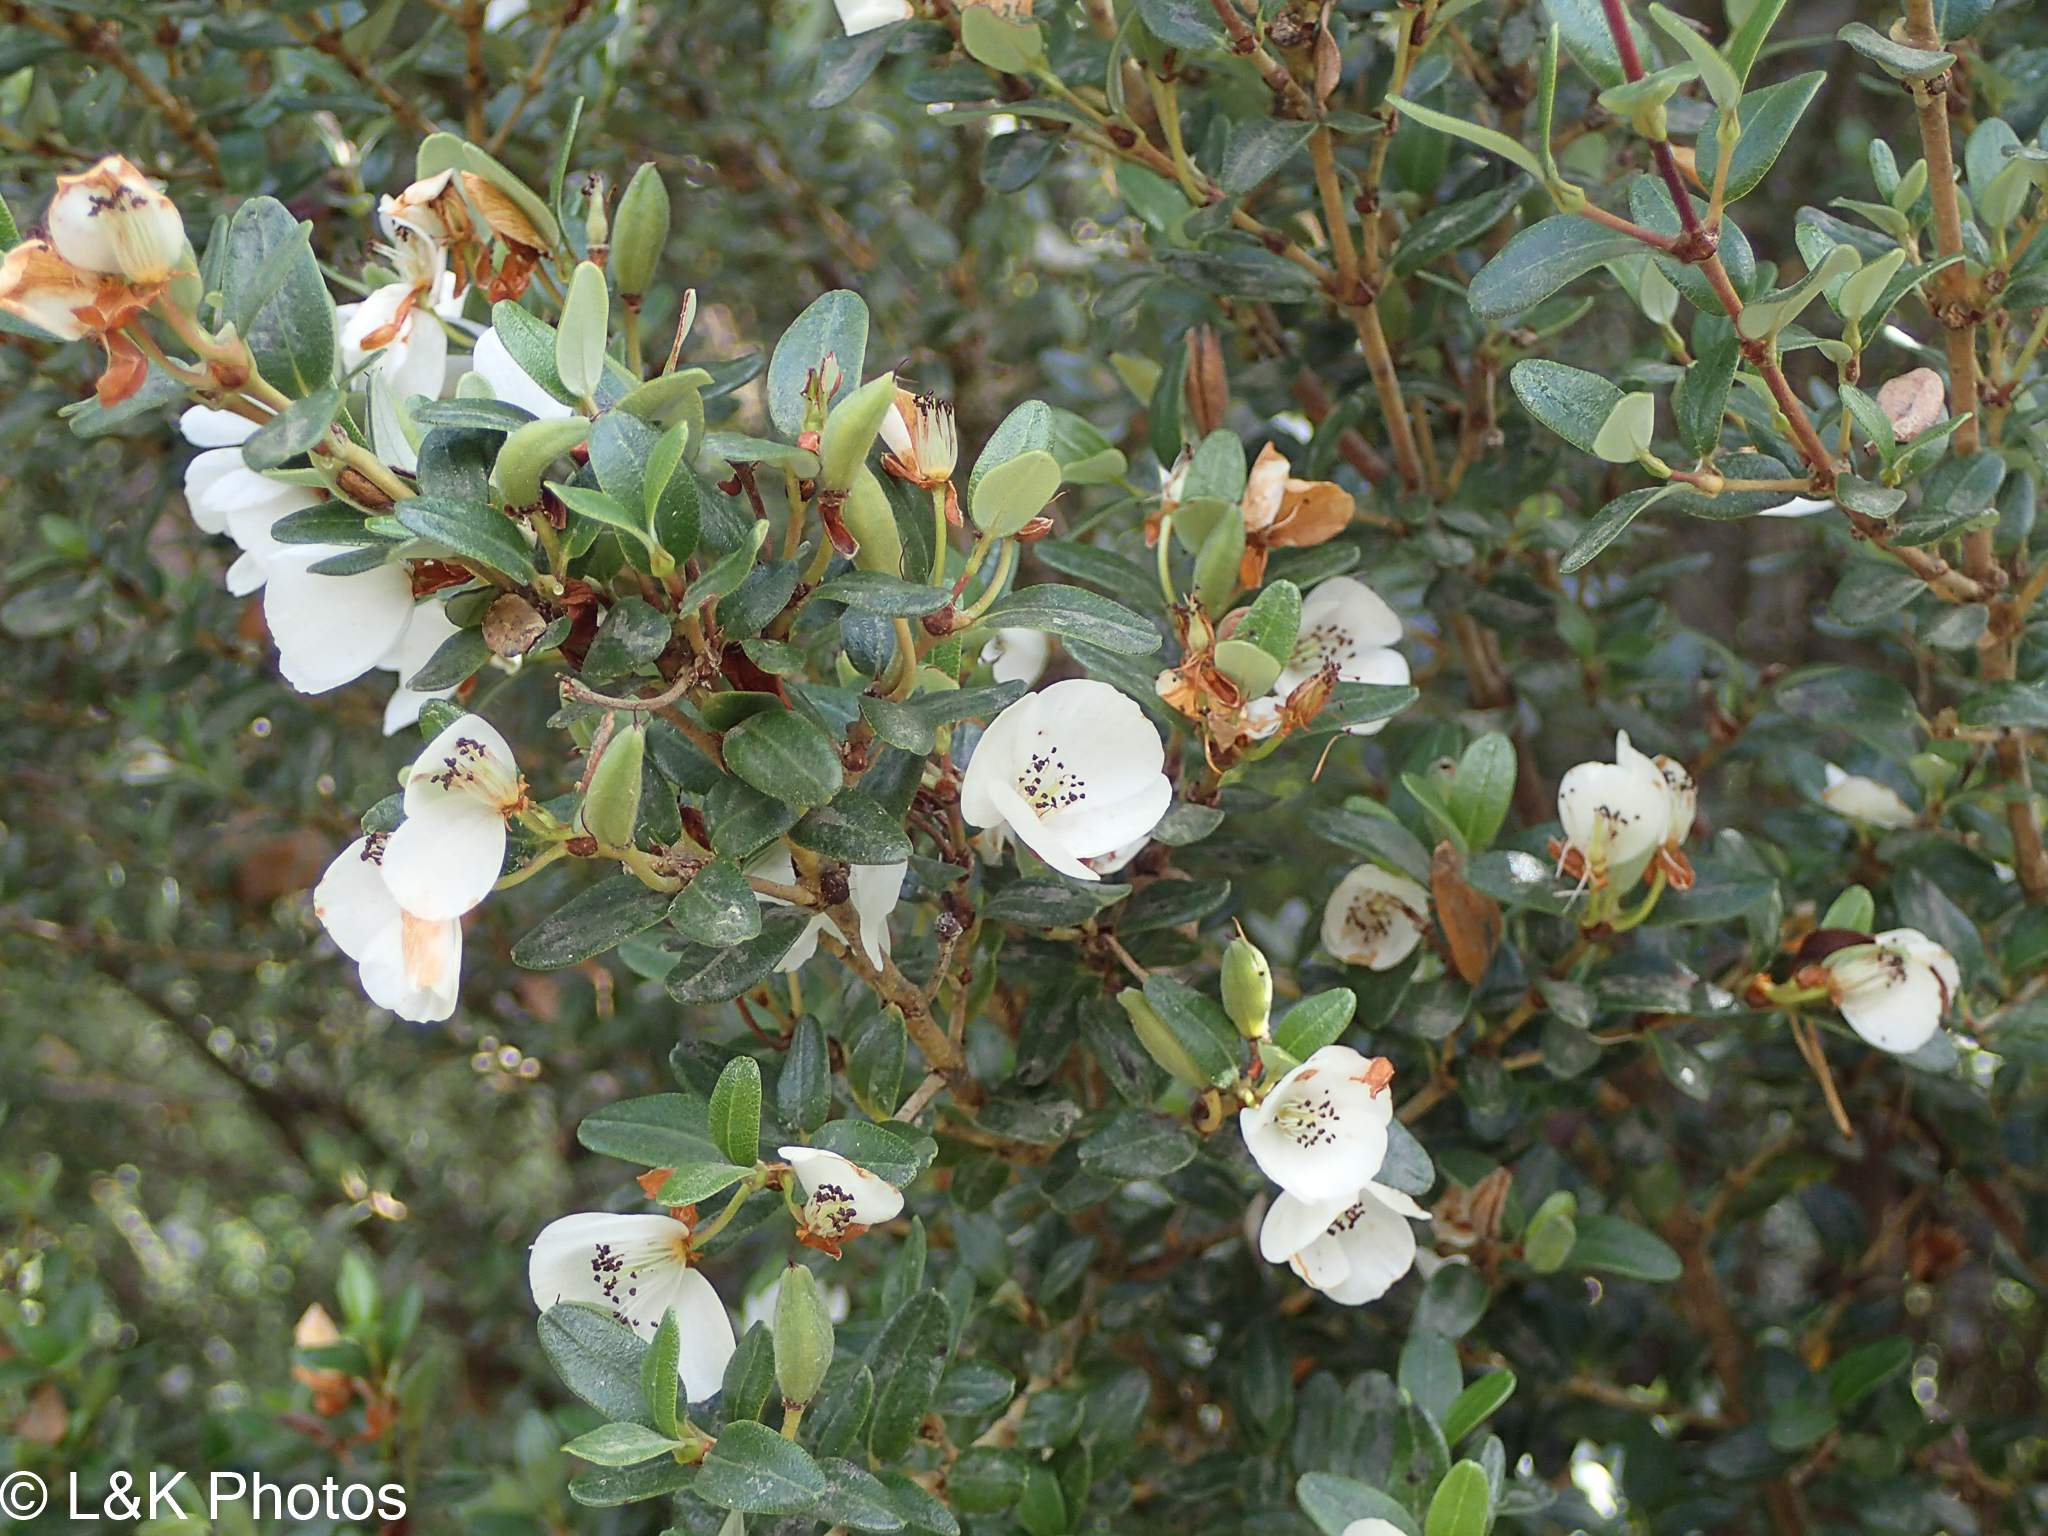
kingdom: Plantae
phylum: Tracheophyta
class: Magnoliopsida
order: Oxalidales
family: Cunoniaceae
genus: Eucryphia
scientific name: Eucryphia milliganii
